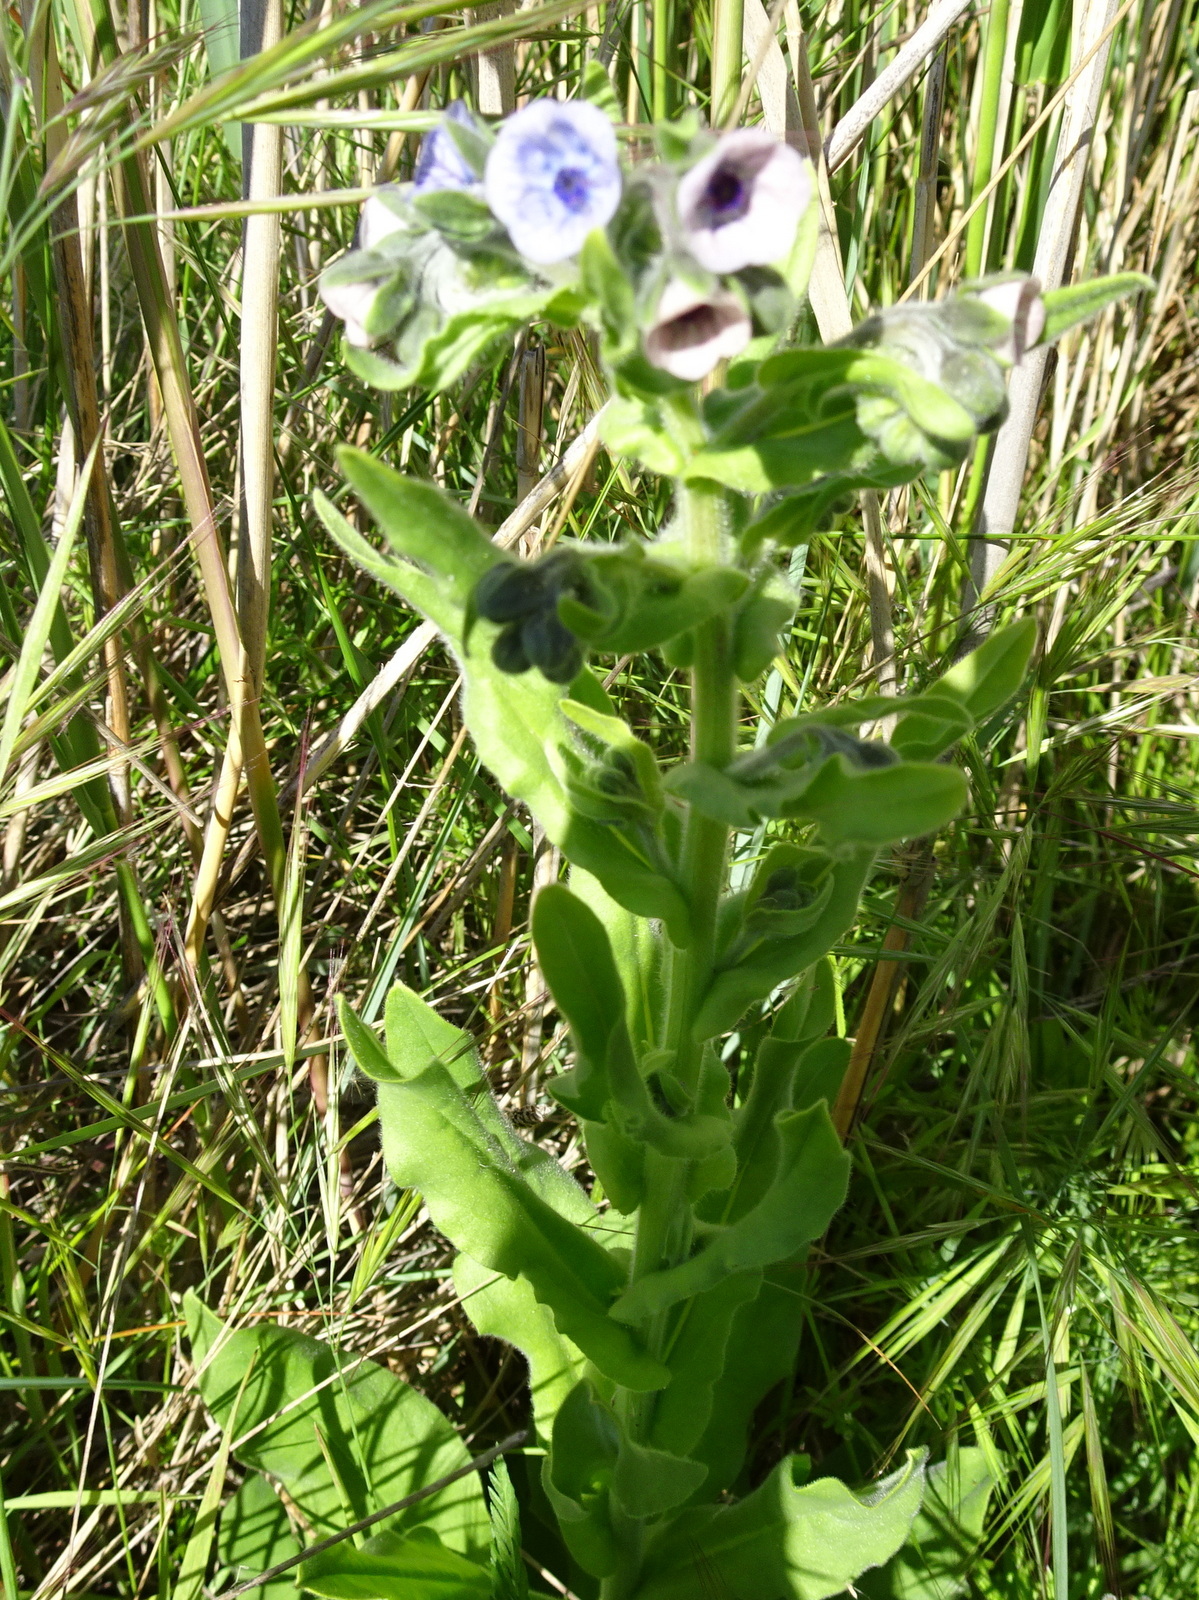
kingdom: Plantae
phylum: Tracheophyta
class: Magnoliopsida
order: Boraginales
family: Boraginaceae
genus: Cynoglossum
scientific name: Cynoglossum creticum
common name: Blue hound's tongue
